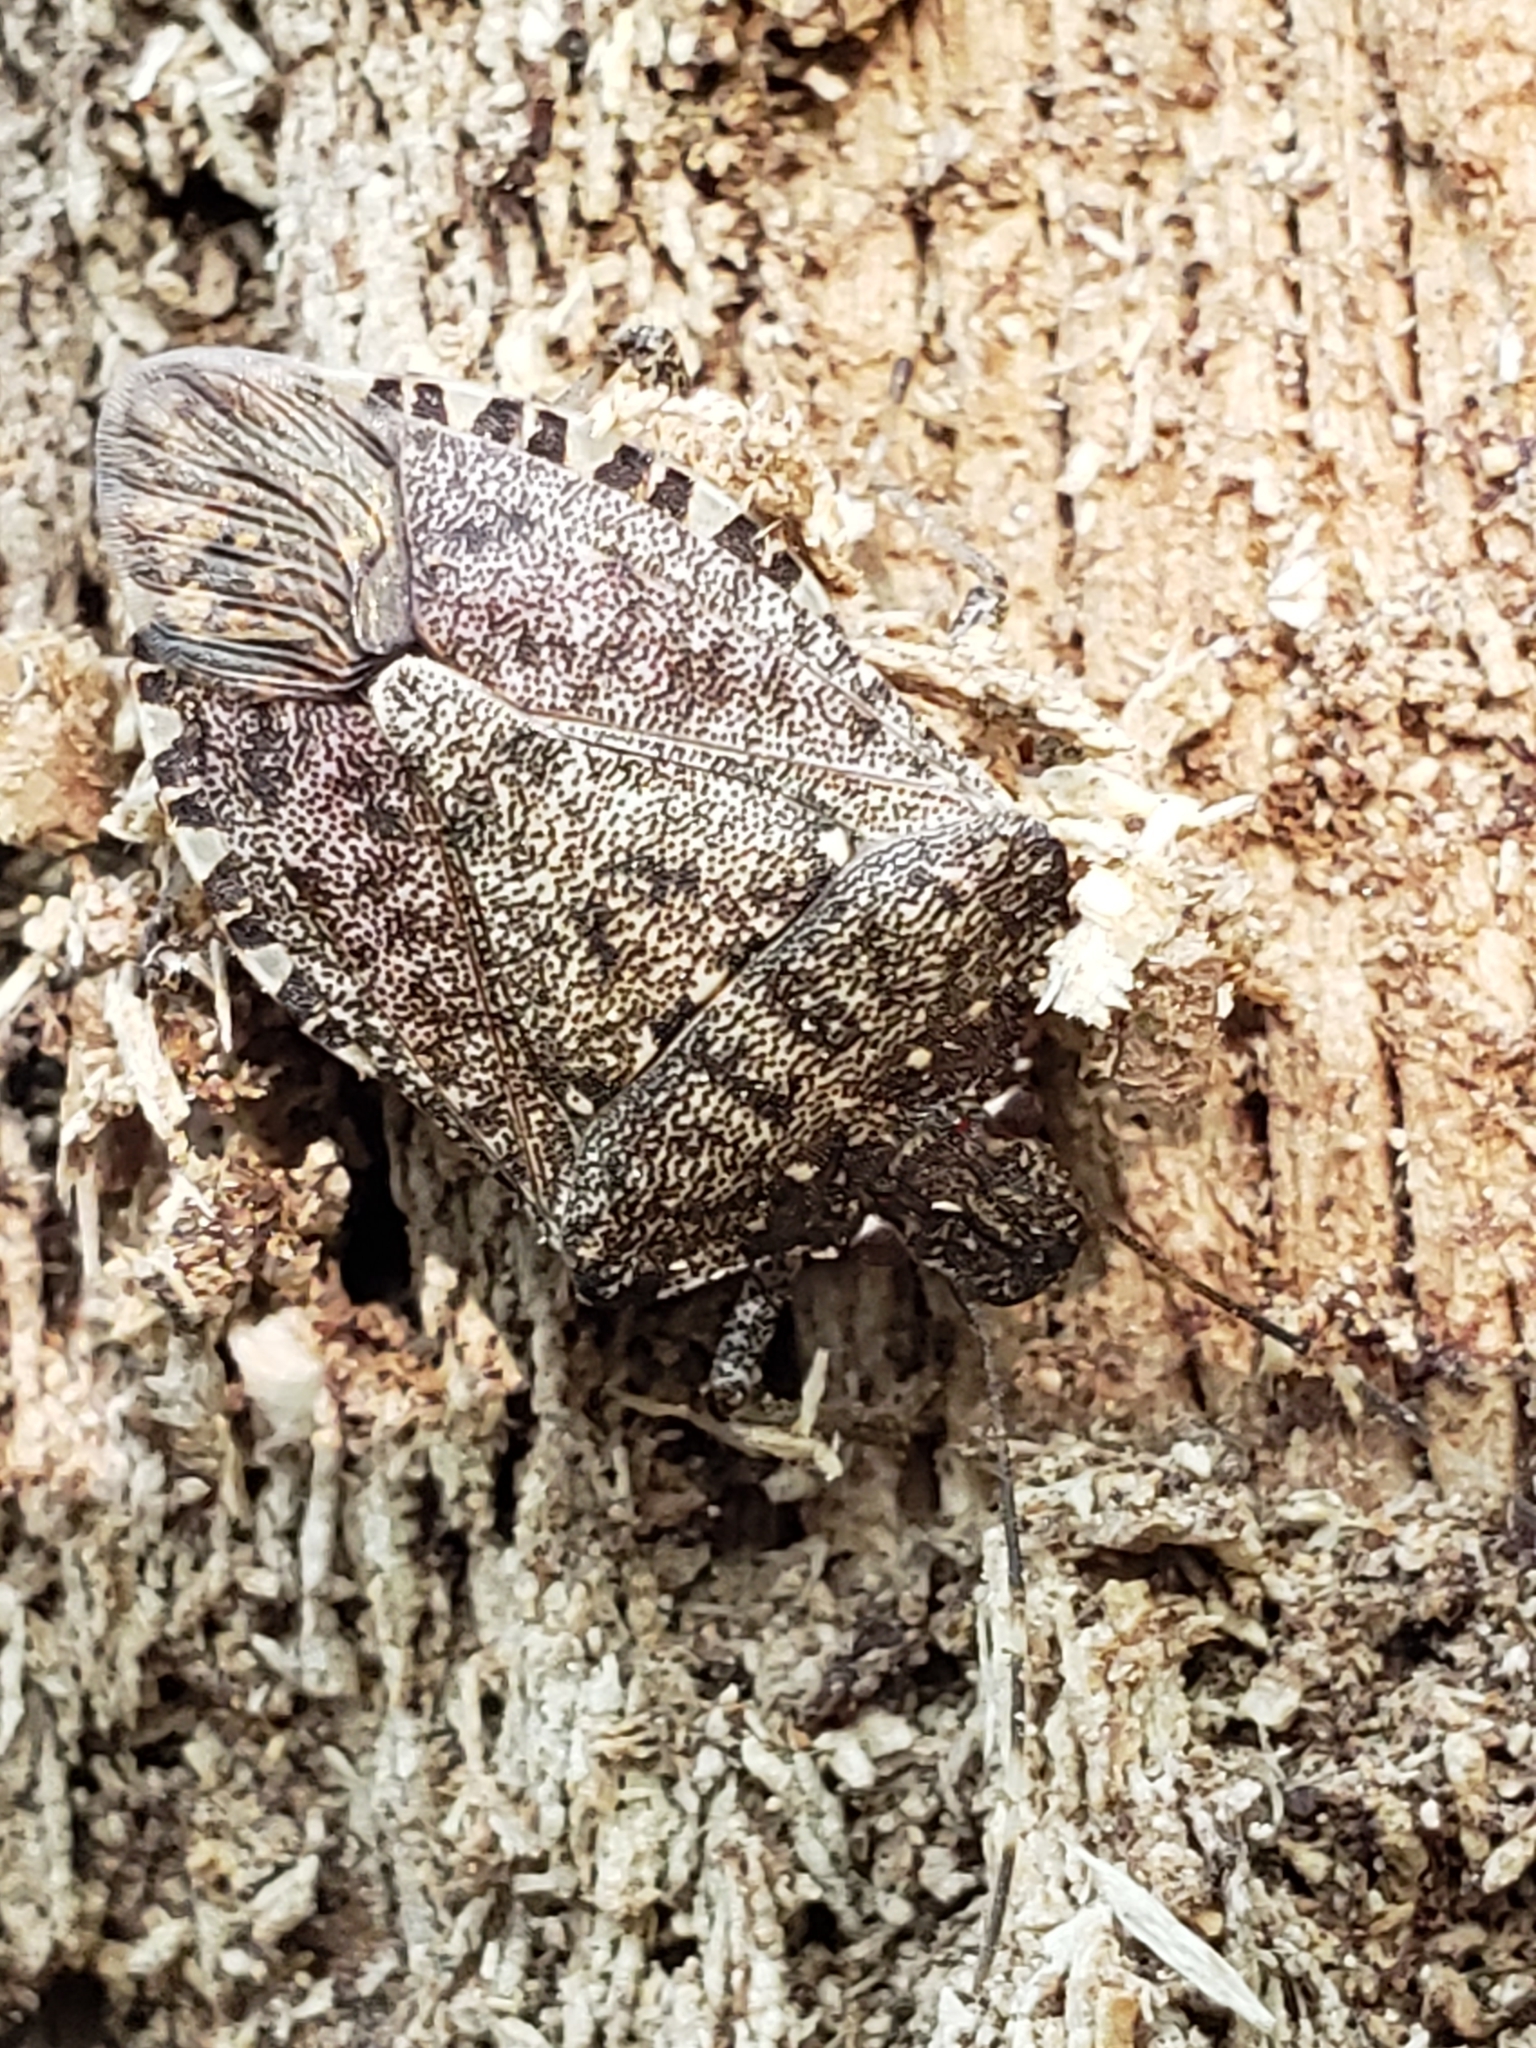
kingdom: Animalia
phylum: Arthropoda
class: Insecta
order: Hemiptera
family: Pentatomidae
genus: Halyomorpha
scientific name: Halyomorpha halys
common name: Brown marmorated stink bug
